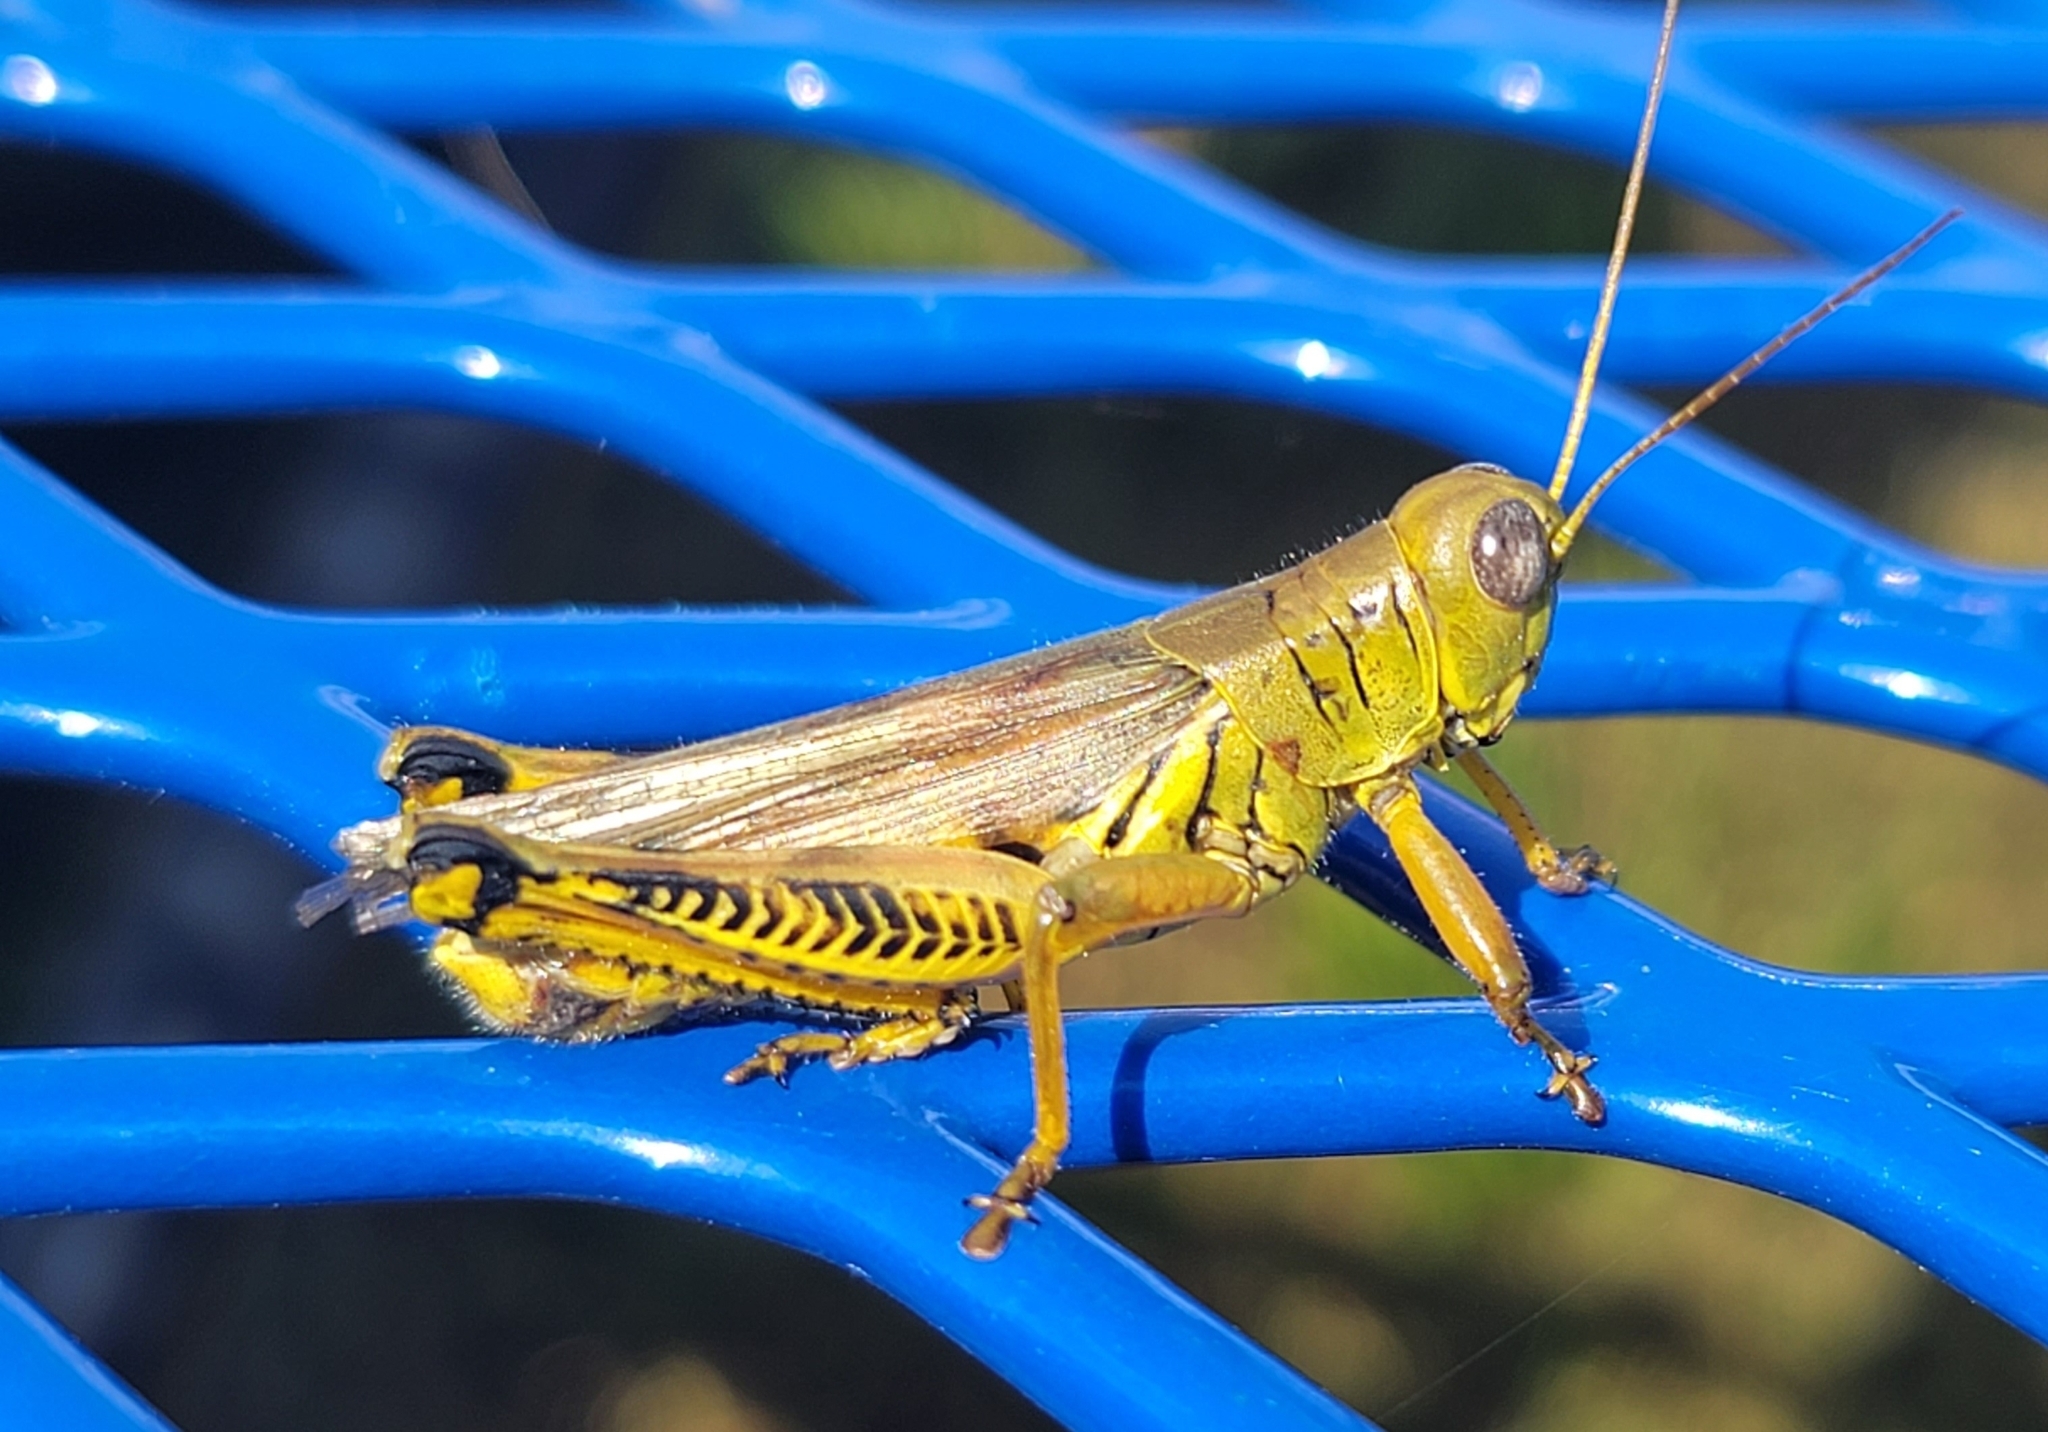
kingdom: Animalia
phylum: Arthropoda
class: Insecta
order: Orthoptera
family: Acrididae
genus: Melanoplus
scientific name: Melanoplus differentialis
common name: Differential grasshopper
